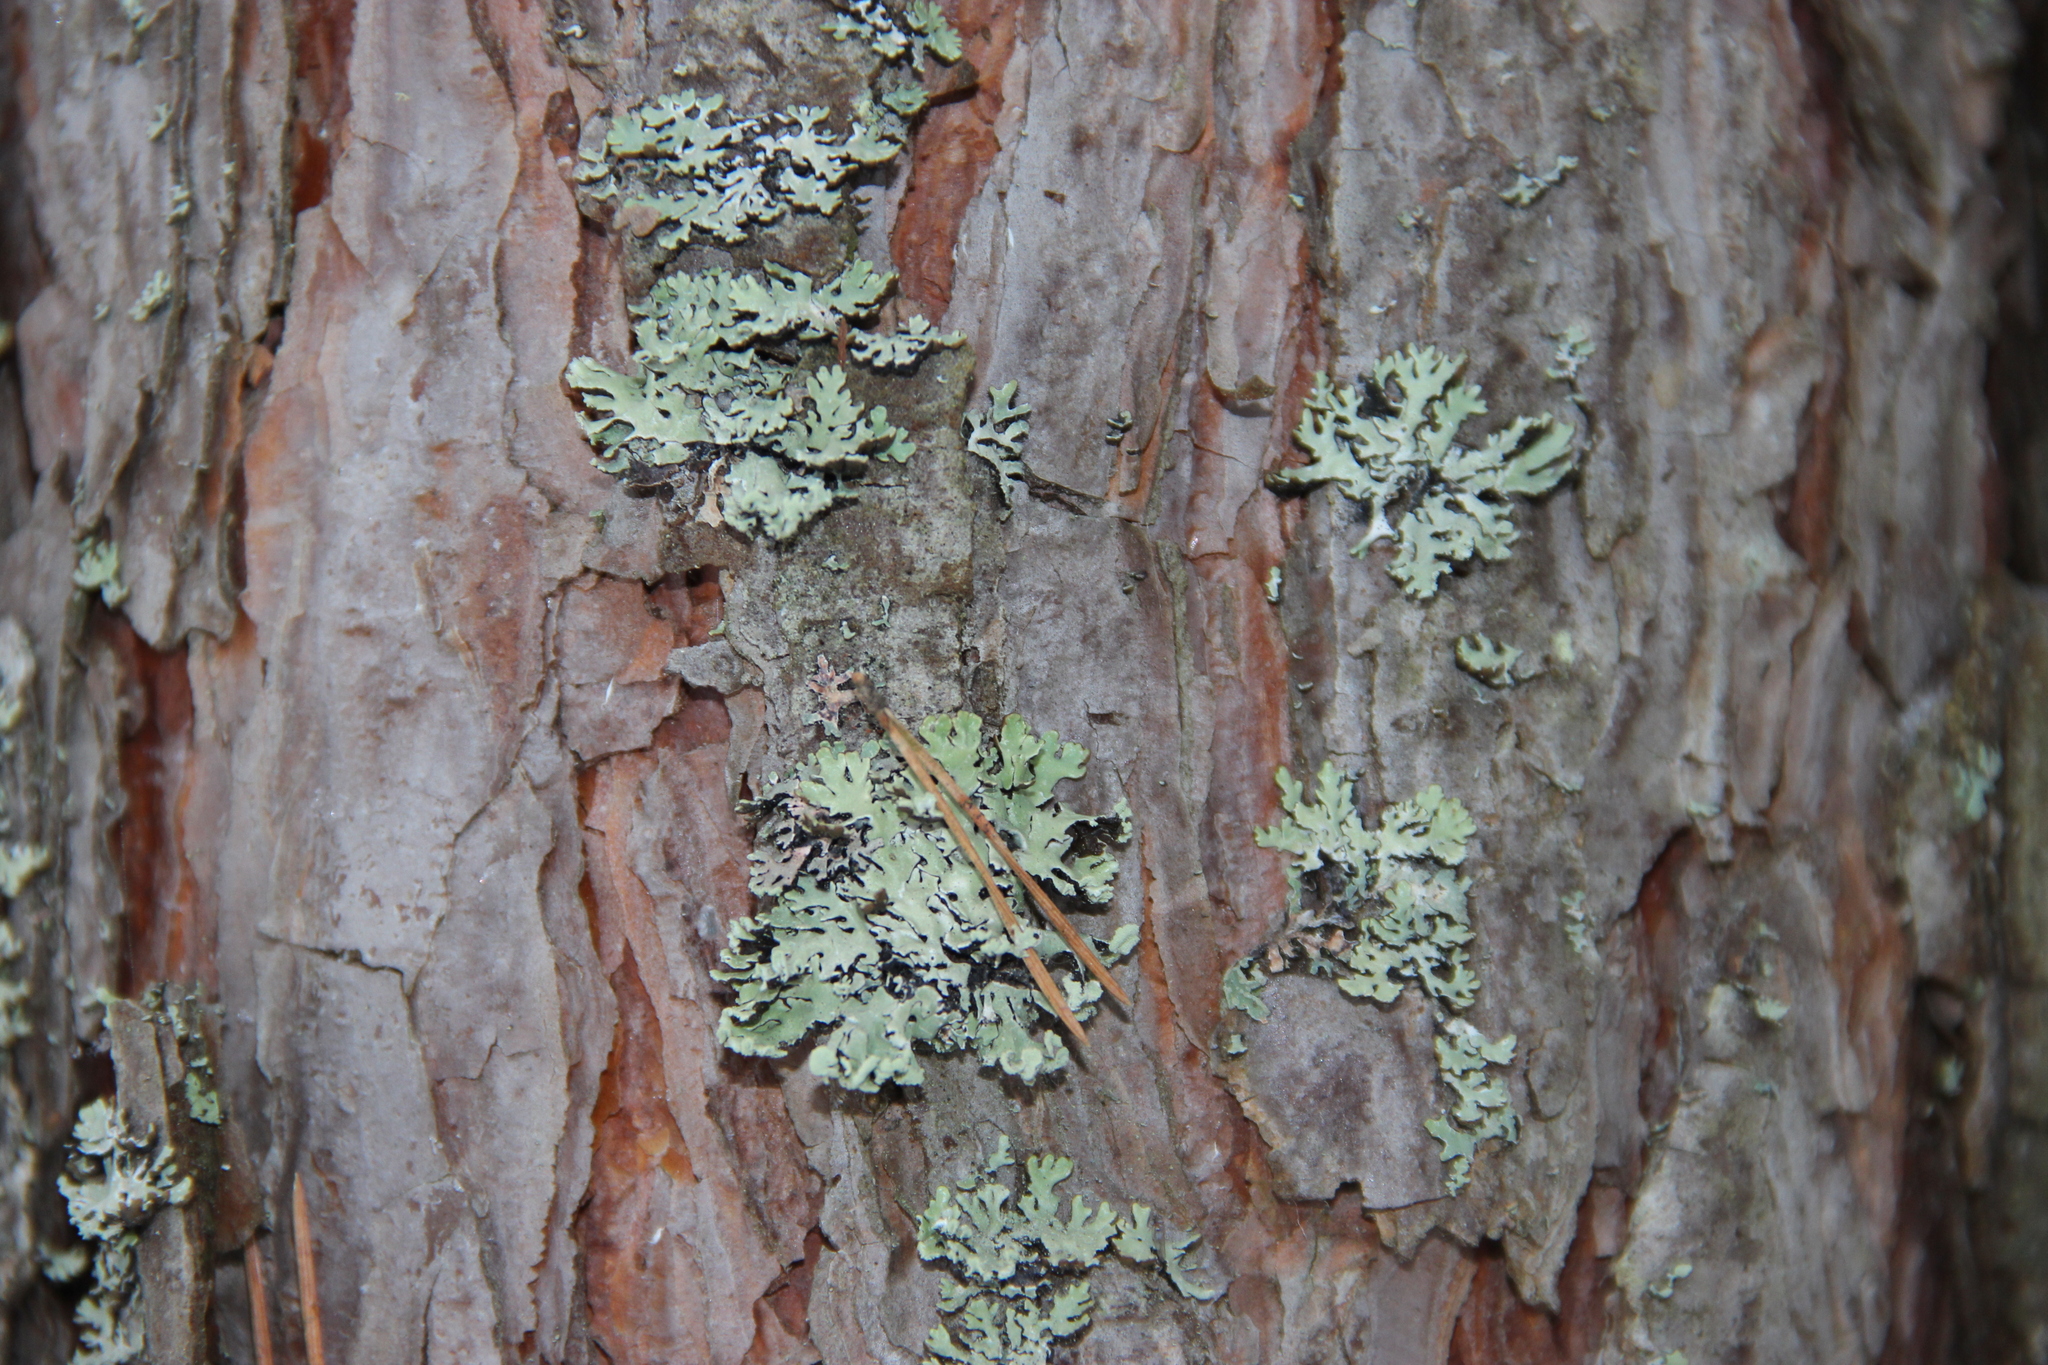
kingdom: Fungi
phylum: Ascomycota
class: Lecanoromycetes
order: Lecanorales
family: Parmeliaceae
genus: Hypogymnia
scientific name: Hypogymnia physodes
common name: Dark crottle
